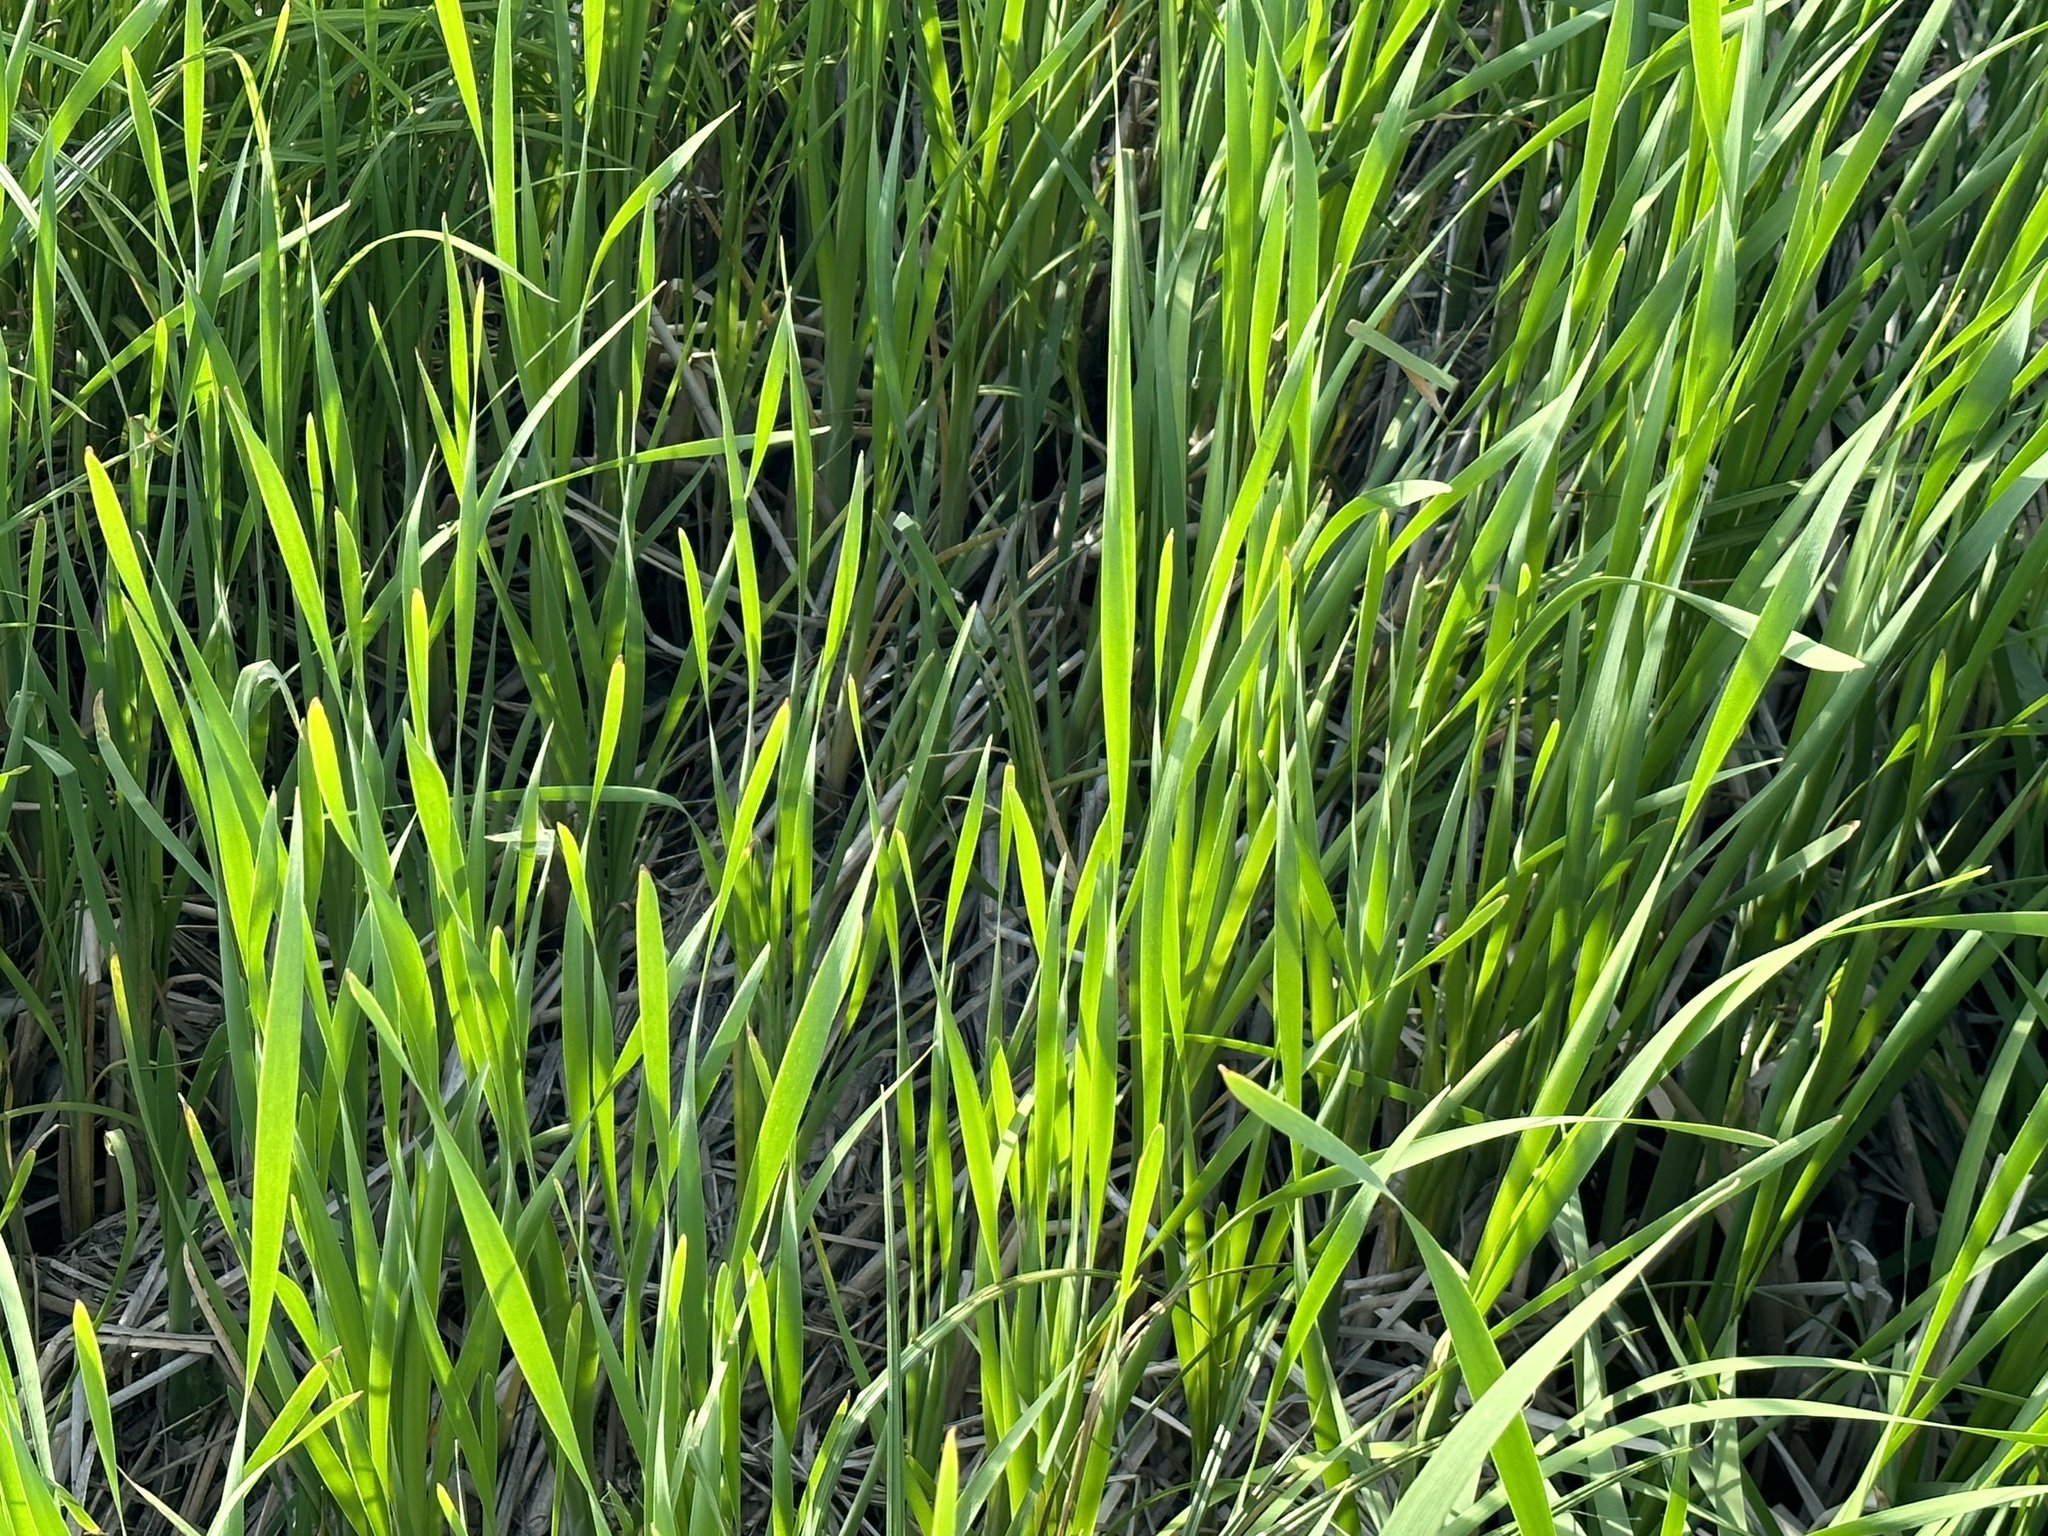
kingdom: Plantae
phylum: Tracheophyta
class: Liliopsida
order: Poales
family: Typhaceae
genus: Typha
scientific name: Typha latifolia
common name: Broadleaf cattail
